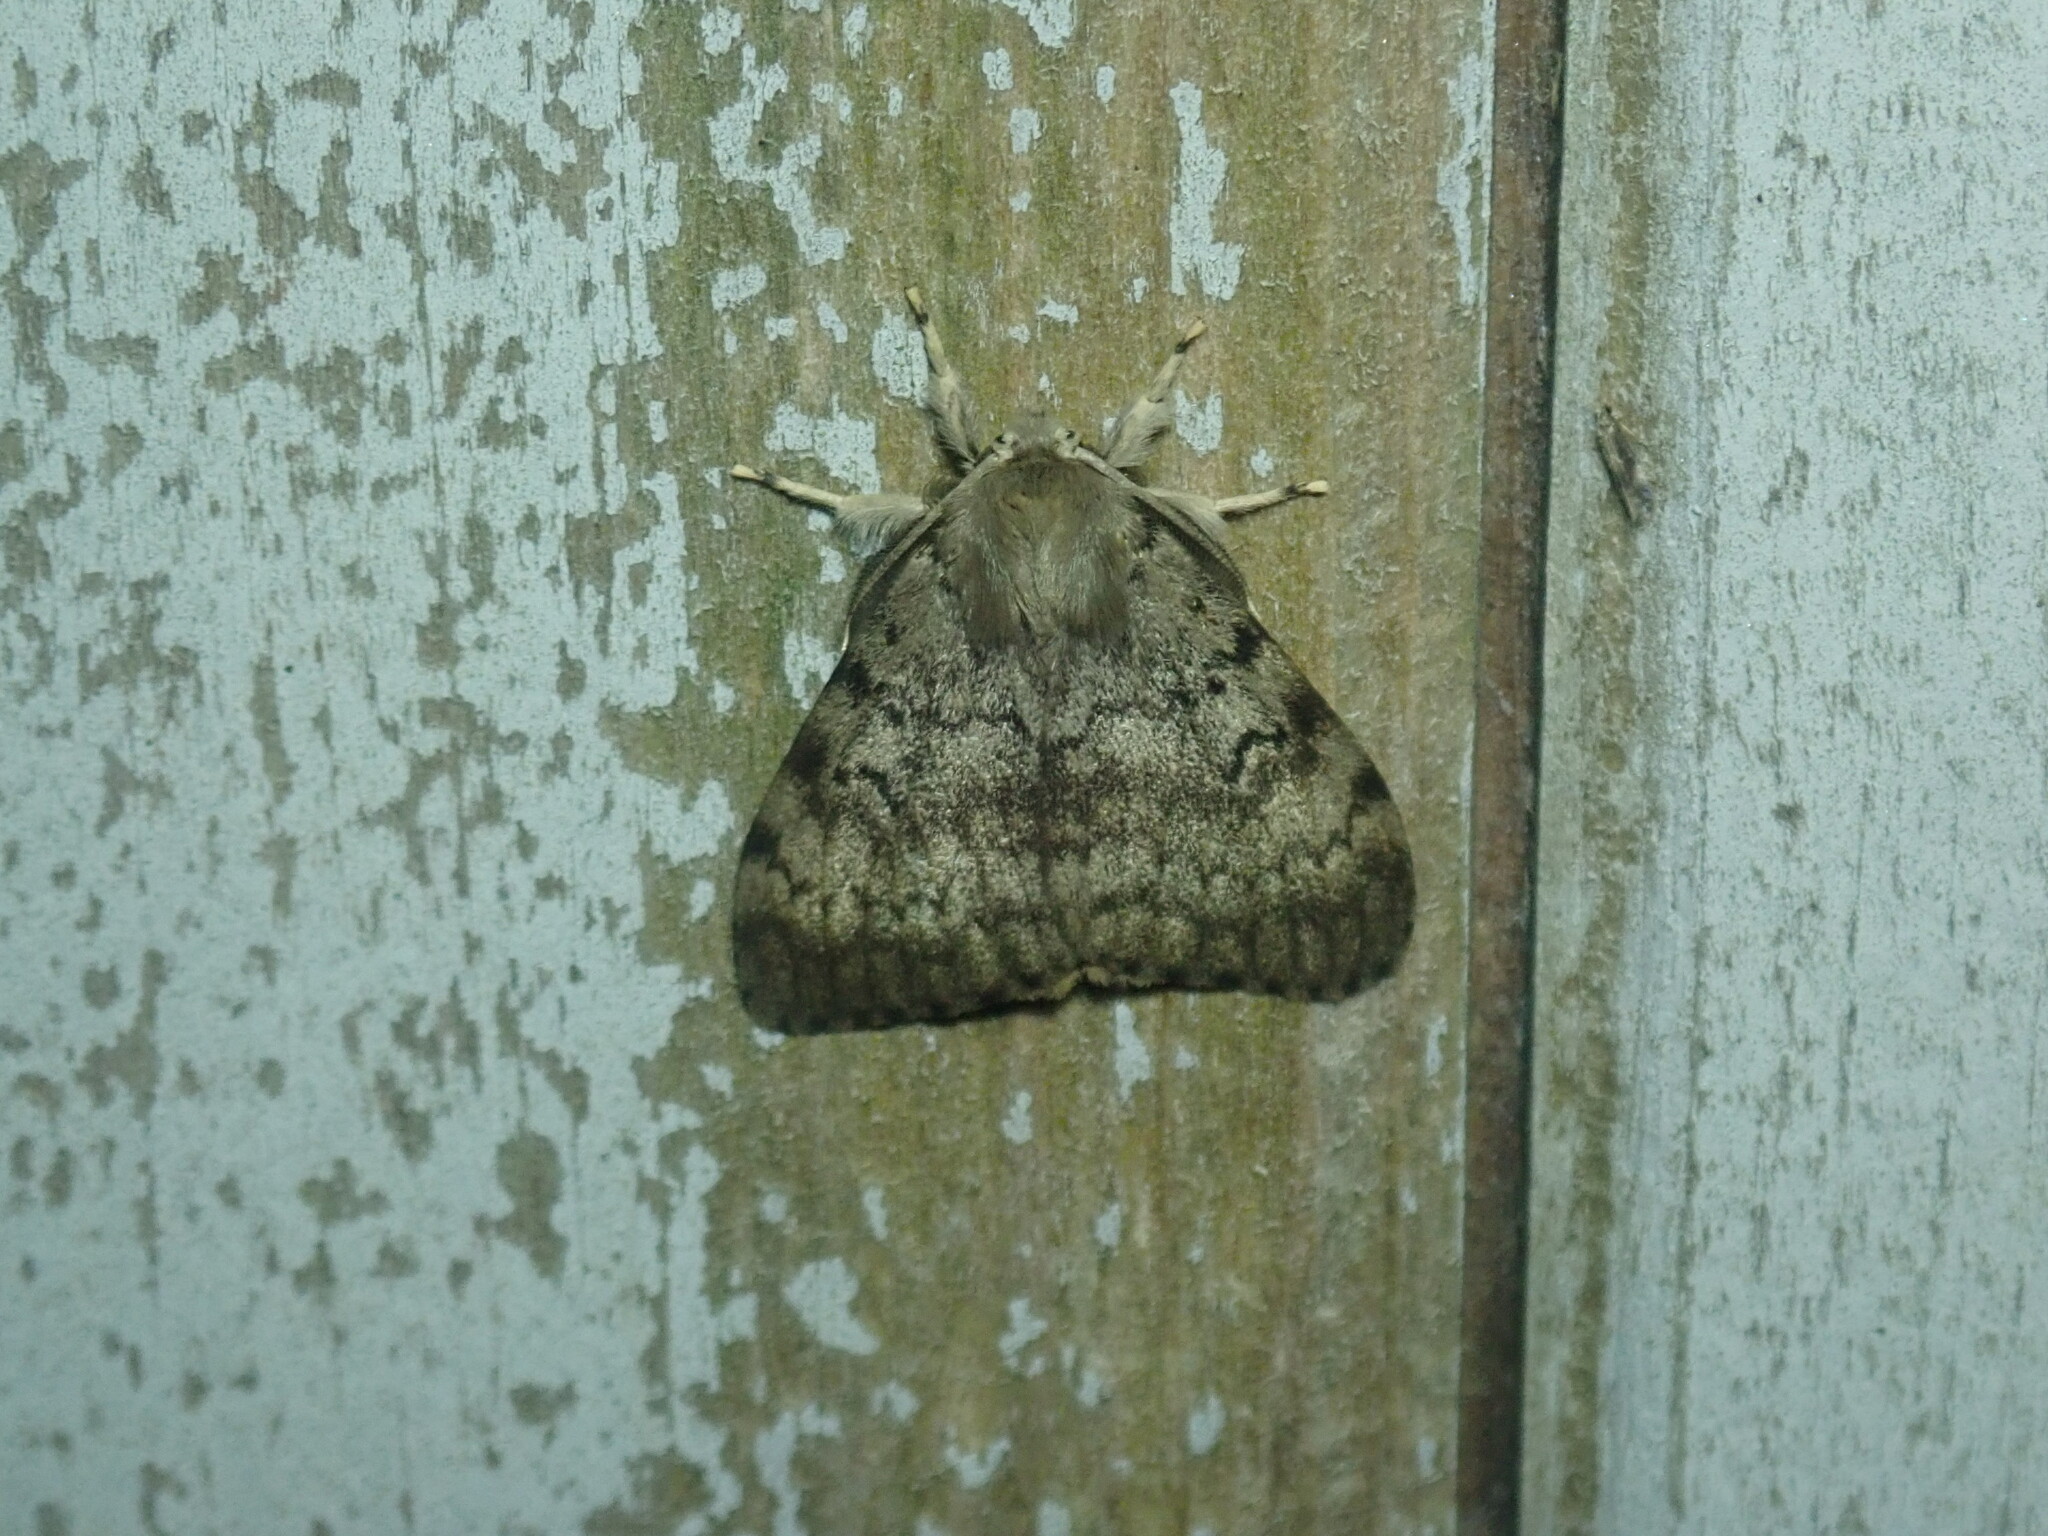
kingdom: Animalia
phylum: Arthropoda
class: Insecta
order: Lepidoptera
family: Erebidae
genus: Lymantria
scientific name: Lymantria dispar
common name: Gypsy moth
